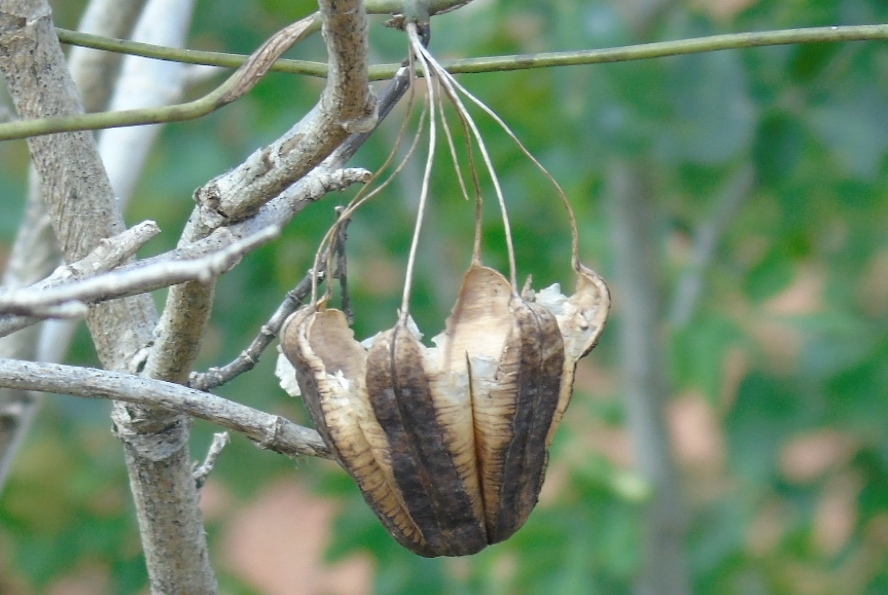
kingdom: Plantae
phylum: Tracheophyta
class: Magnoliopsida
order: Piperales
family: Aristolochiaceae
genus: Aristolochia
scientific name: Aristolochia taliscana
